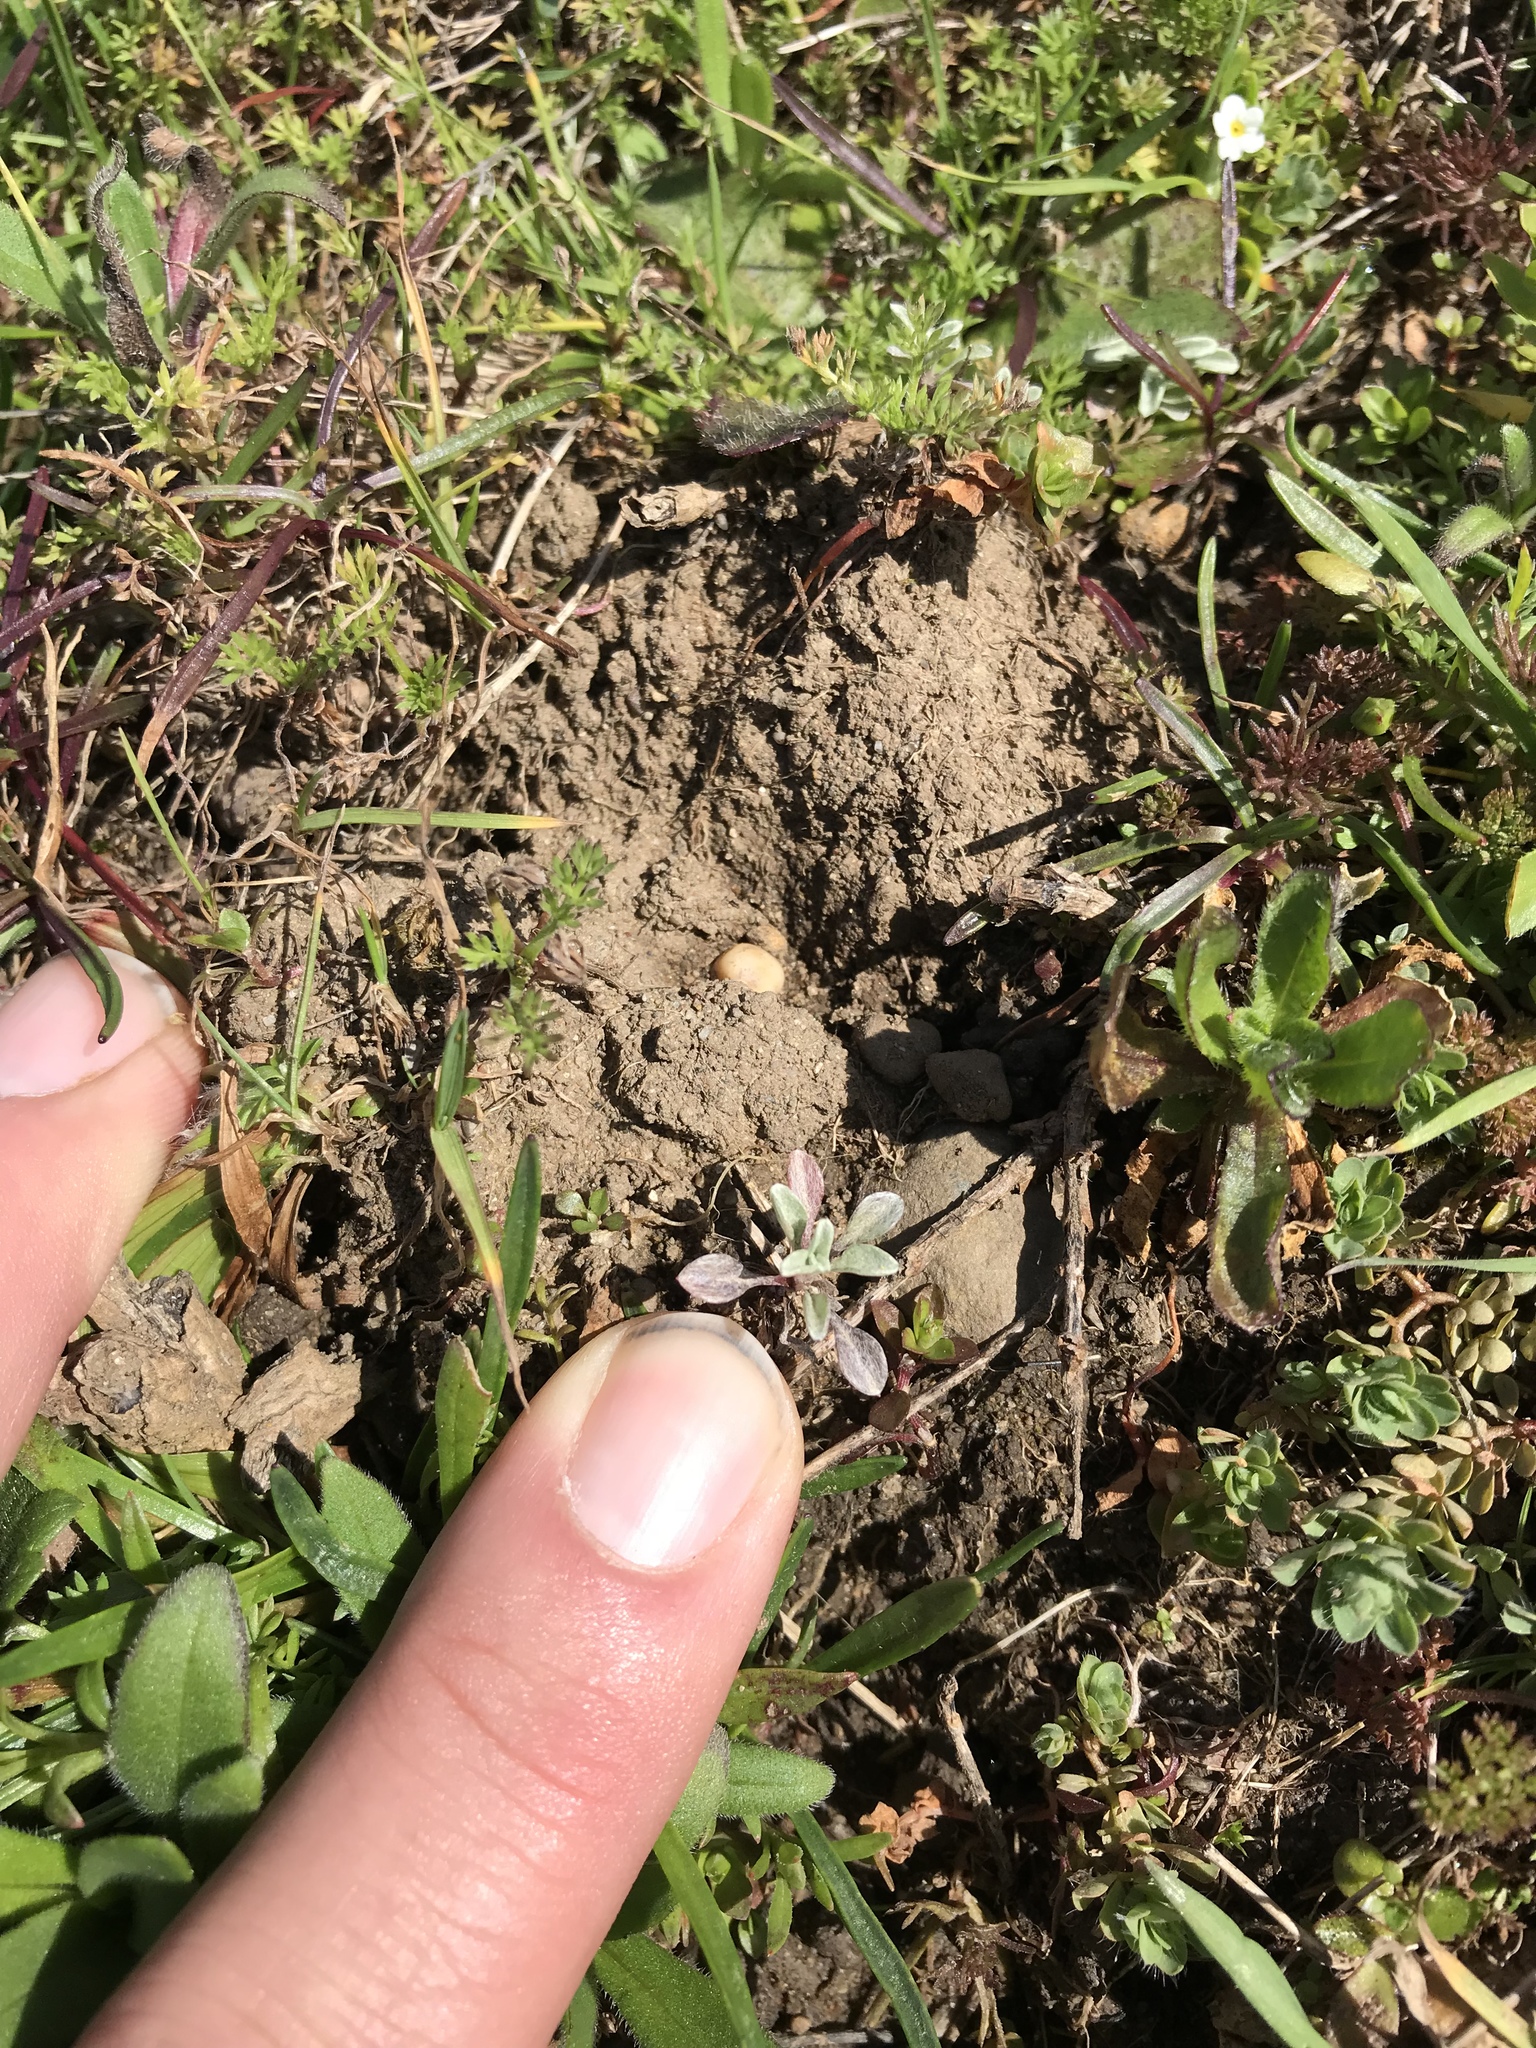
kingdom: Plantae
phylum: Tracheophyta
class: Magnoliopsida
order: Asterales
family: Asteraceae
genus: Hesperevax
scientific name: Hesperevax sparsiflora
